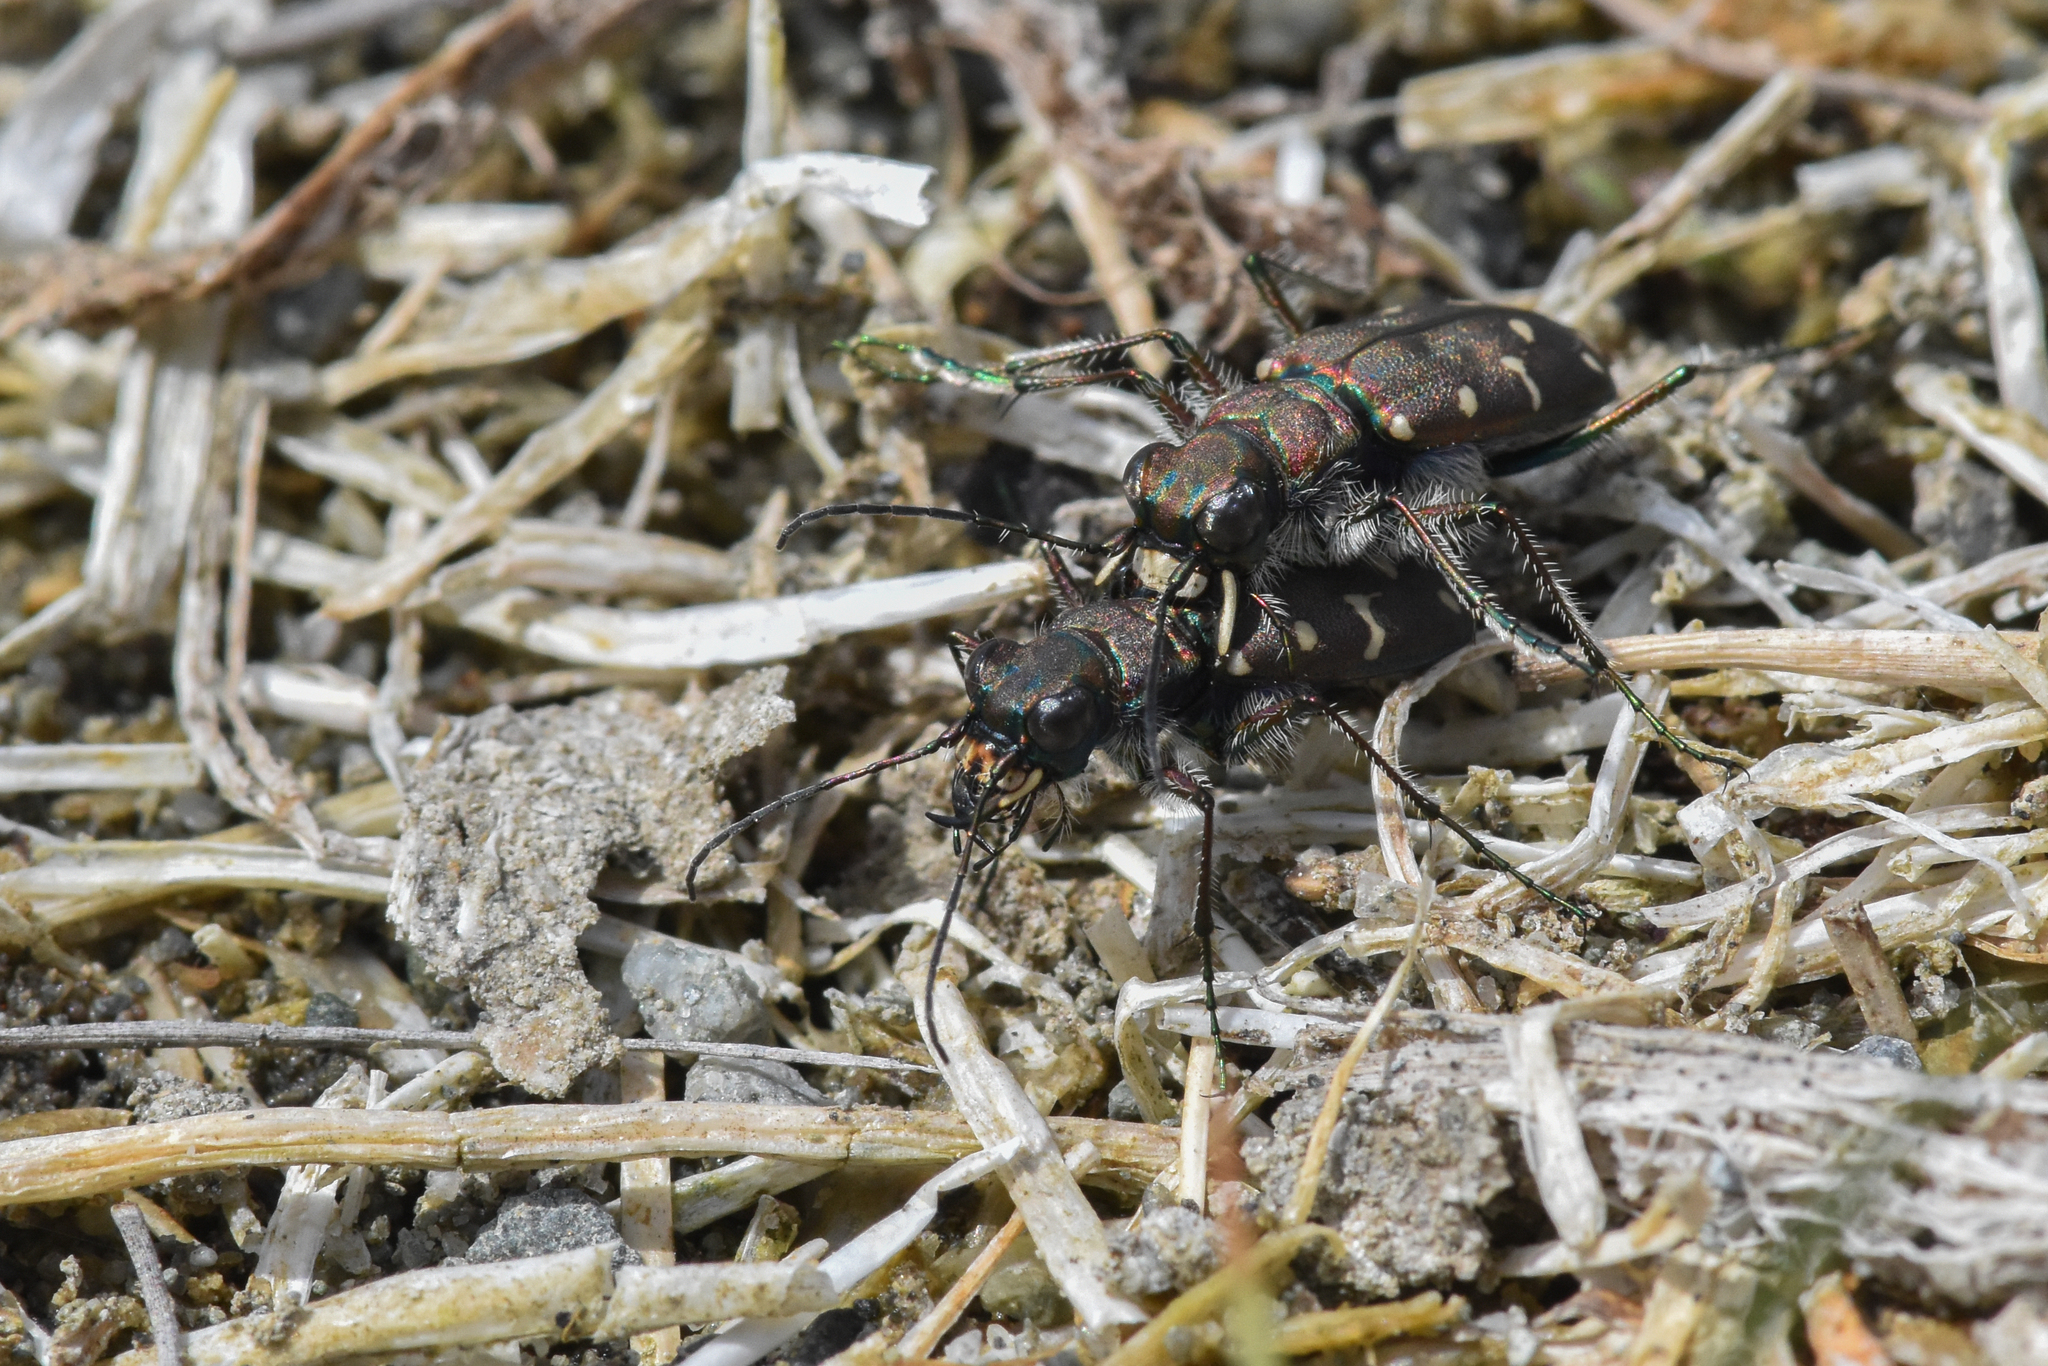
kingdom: Animalia
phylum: Arthropoda
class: Insecta
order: Coleoptera
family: Carabidae
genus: Cicindela
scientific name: Cicindela oregona
